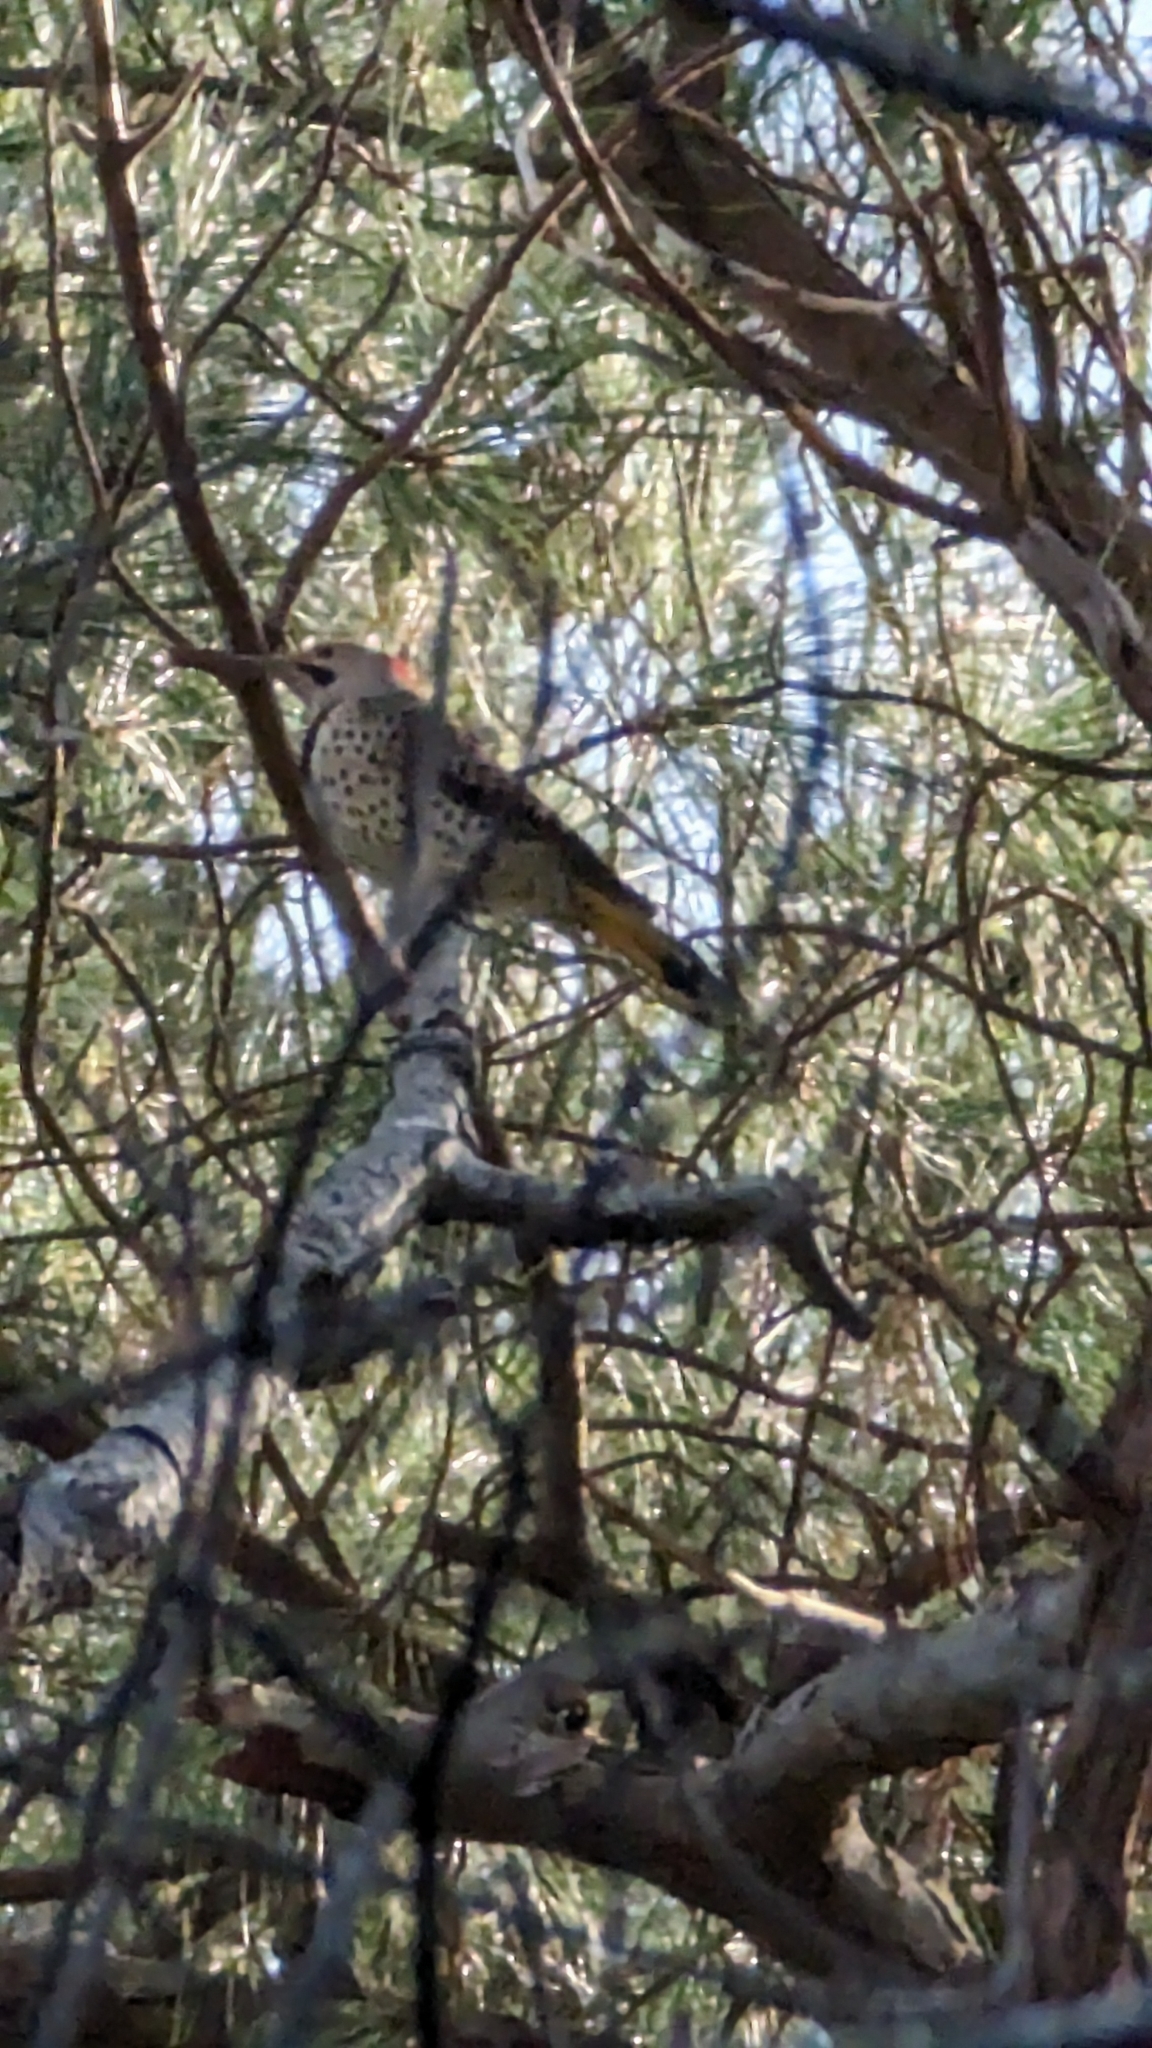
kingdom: Animalia
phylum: Chordata
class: Aves
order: Piciformes
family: Picidae
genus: Colaptes
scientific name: Colaptes auratus
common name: Northern flicker
